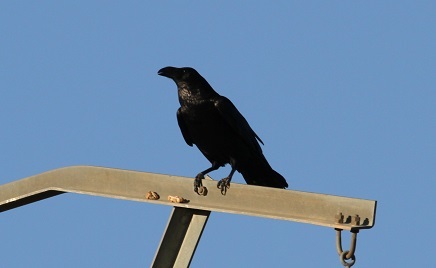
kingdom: Animalia
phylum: Chordata
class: Aves
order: Passeriformes
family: Corvidae
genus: Corvus
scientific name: Corvus corax
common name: Common raven
